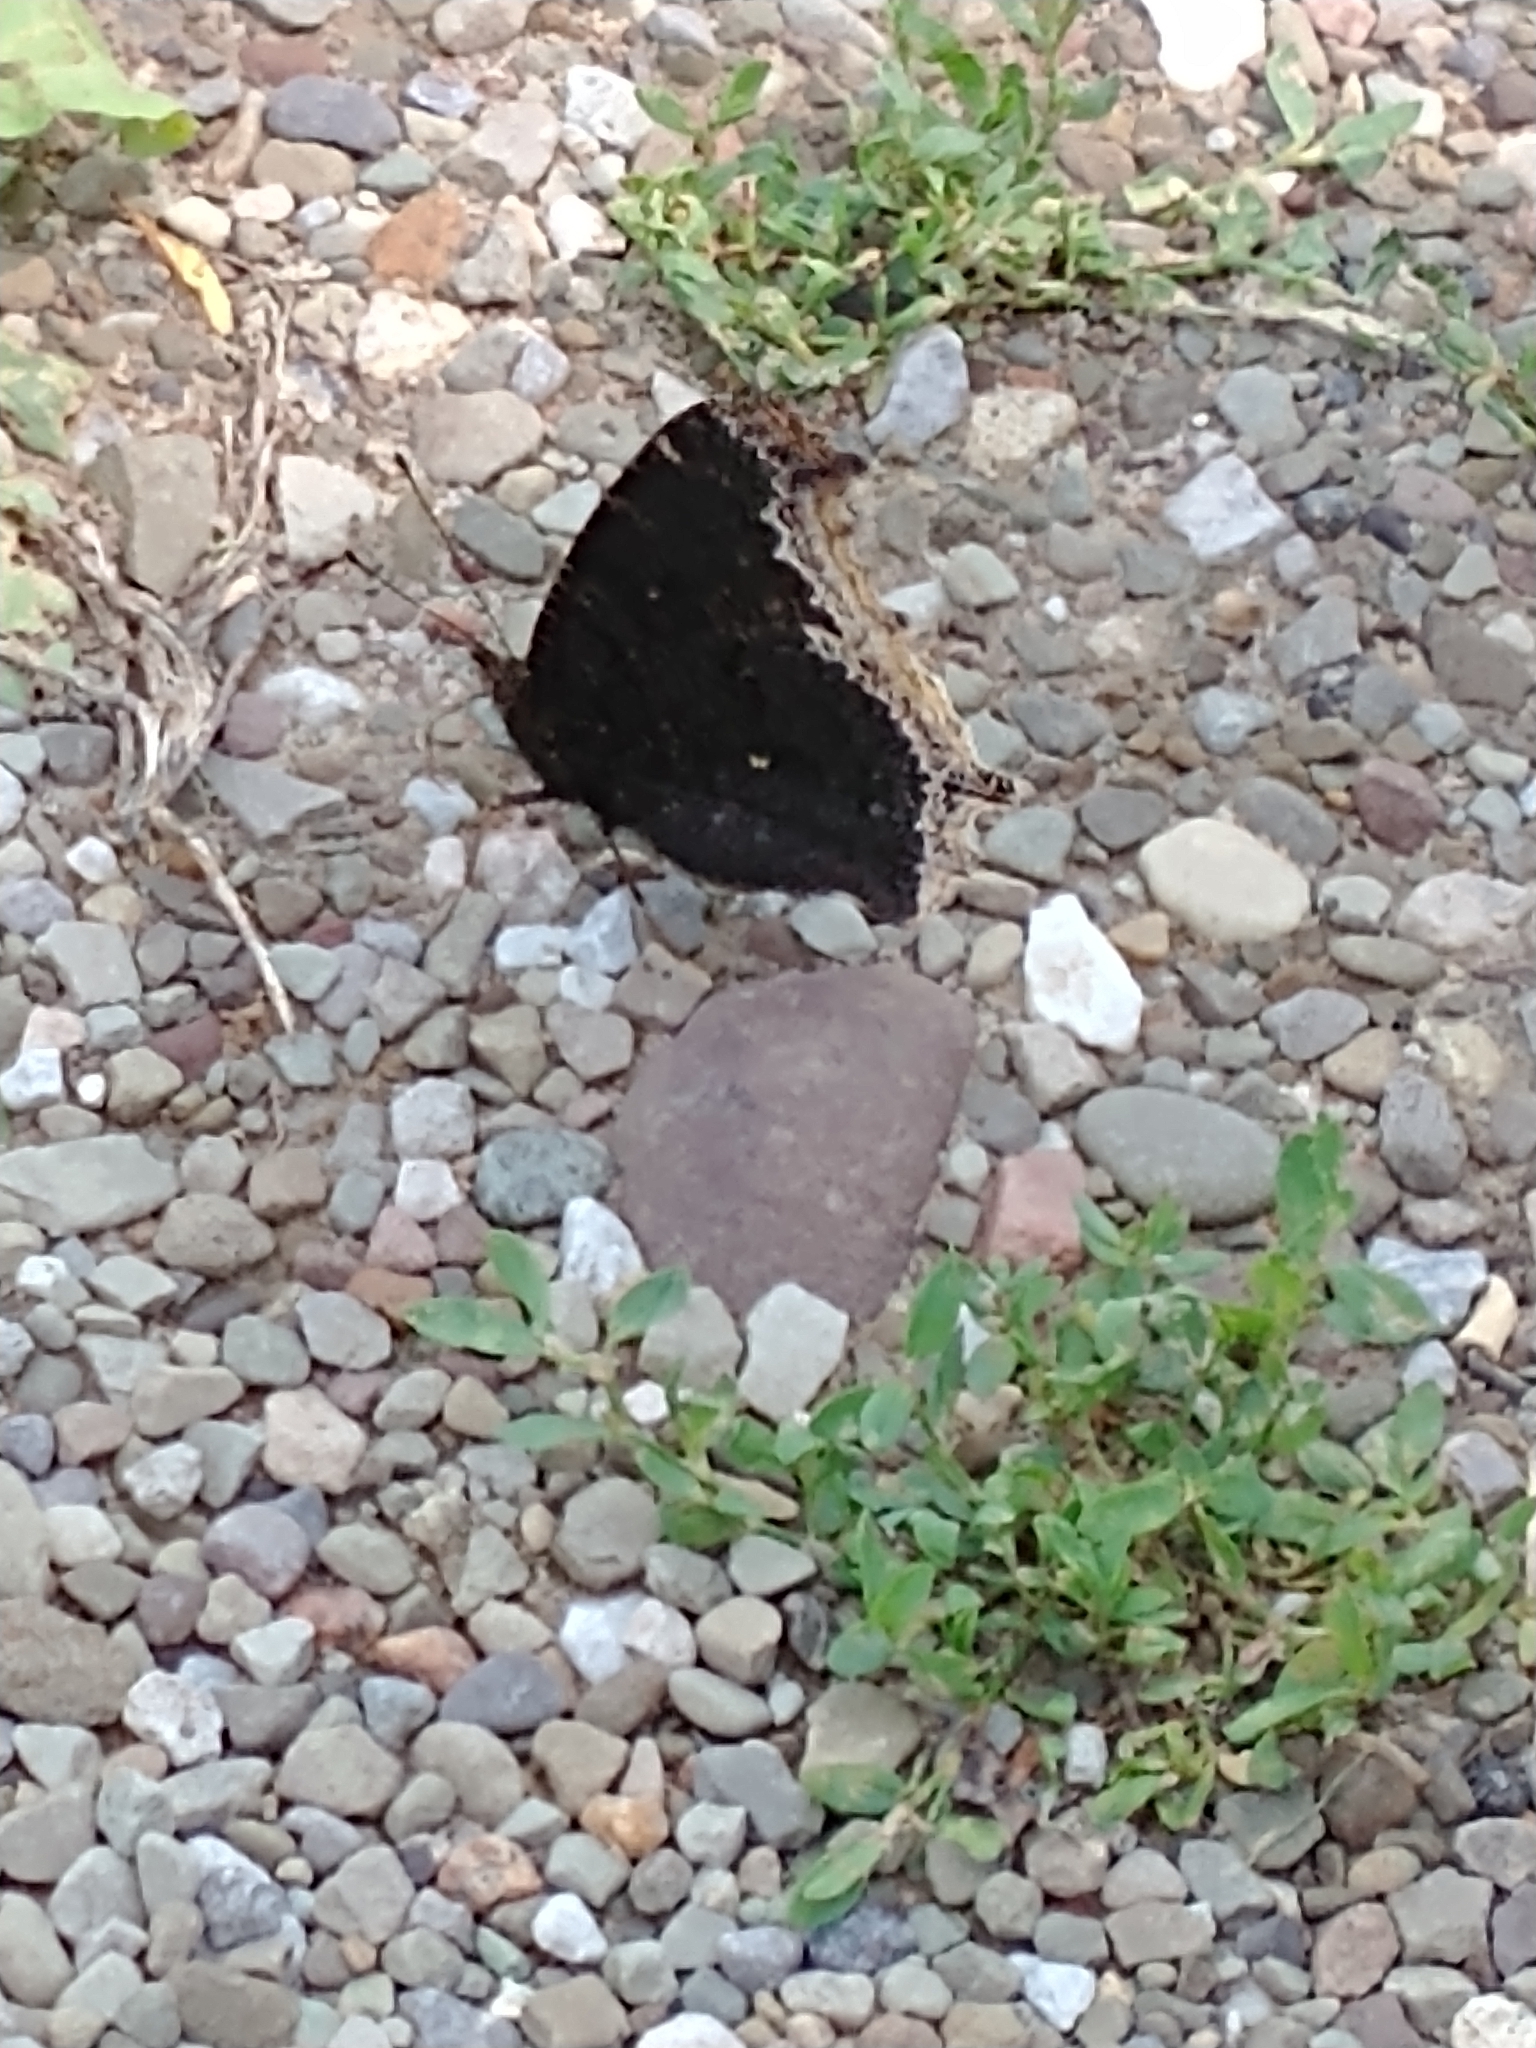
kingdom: Animalia
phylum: Arthropoda
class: Insecta
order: Lepidoptera
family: Nymphalidae
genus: Nymphalis
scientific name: Nymphalis antiopa
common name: Camberwell beauty
